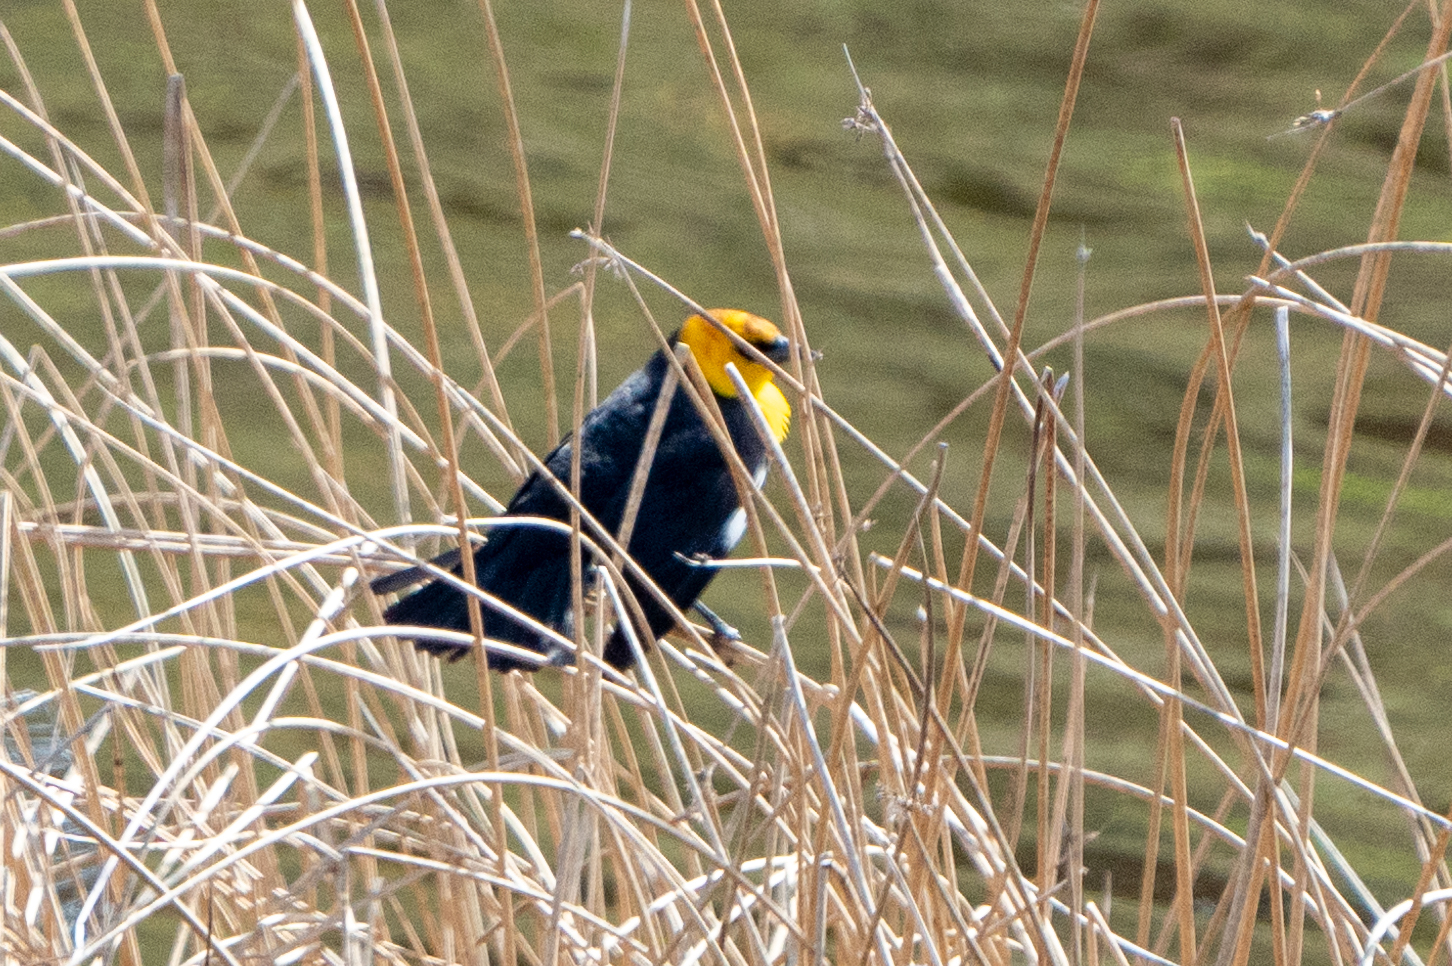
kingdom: Animalia
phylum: Chordata
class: Aves
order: Passeriformes
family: Icteridae
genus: Xanthocephalus
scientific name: Xanthocephalus xanthocephalus
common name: Yellow-headed blackbird
